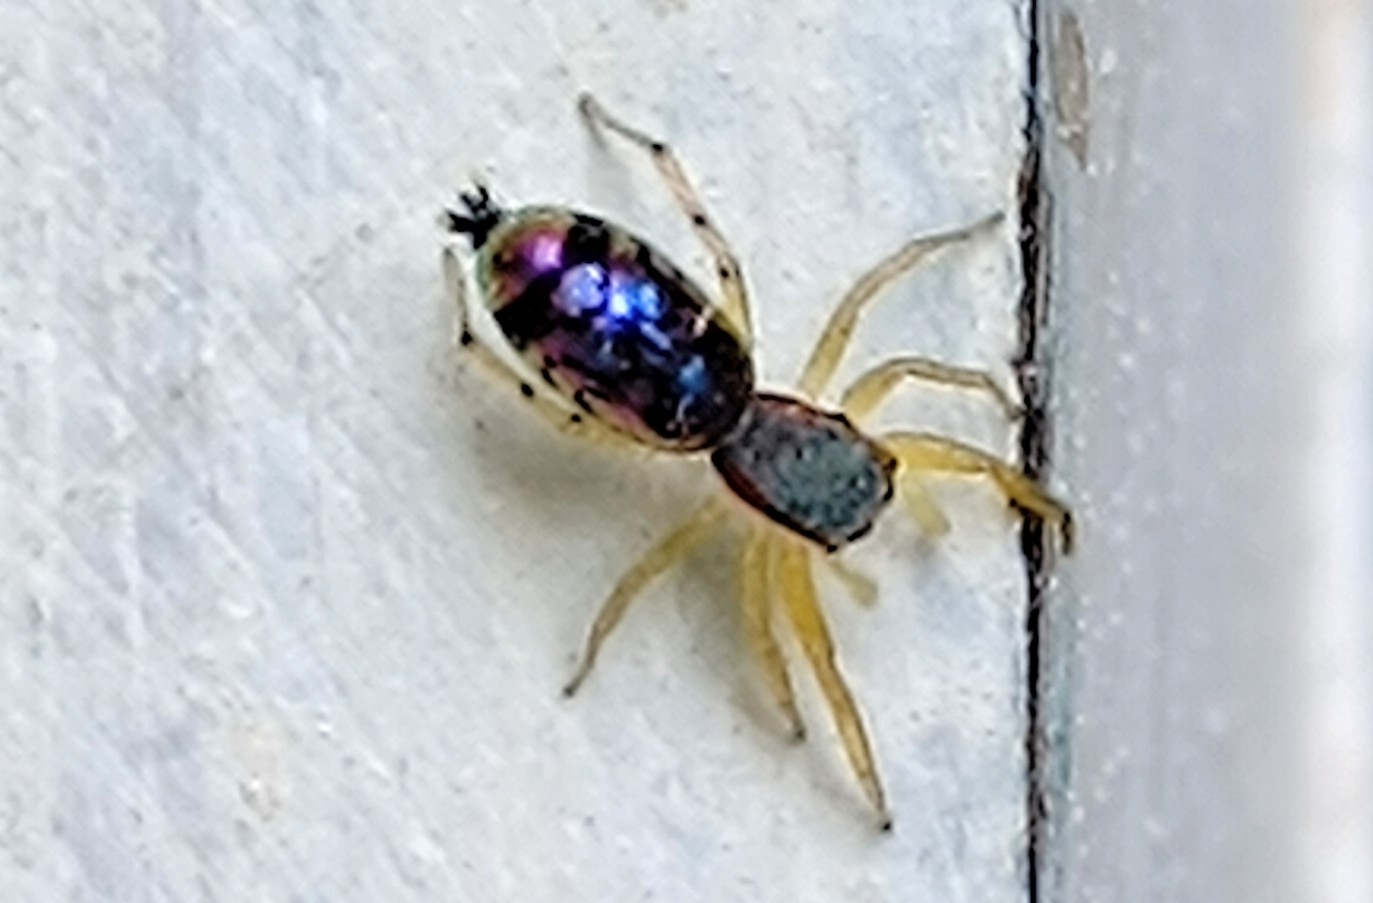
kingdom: Animalia
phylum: Arthropoda
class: Arachnida
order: Araneae
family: Salticidae
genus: Chrysilla
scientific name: Chrysilla volupe
